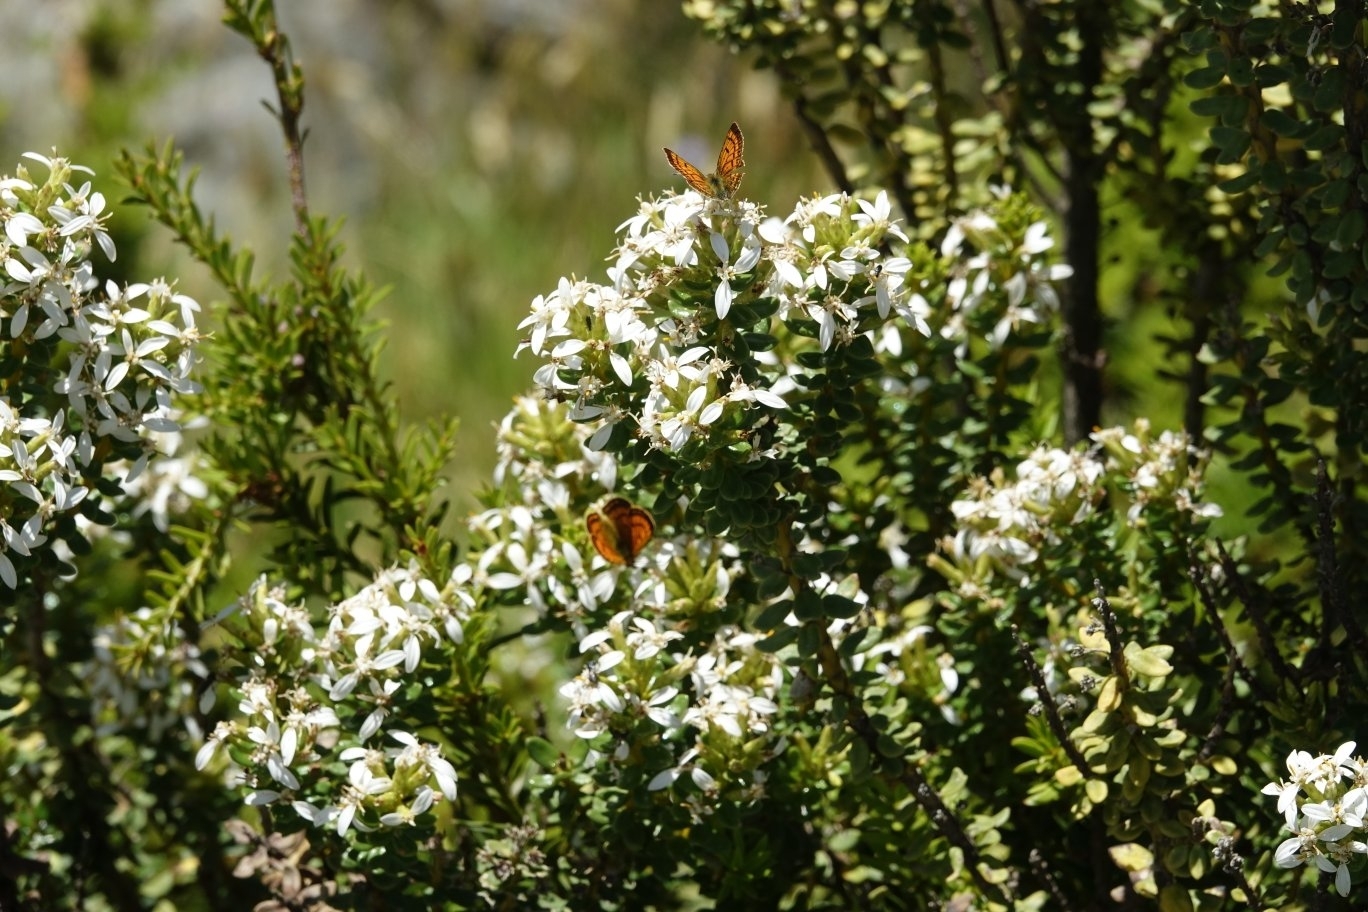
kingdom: Plantae
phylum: Tracheophyta
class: Magnoliopsida
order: Asterales
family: Asteraceae
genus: Olearia
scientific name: Olearia nummularifolia
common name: Sticky daisybush
